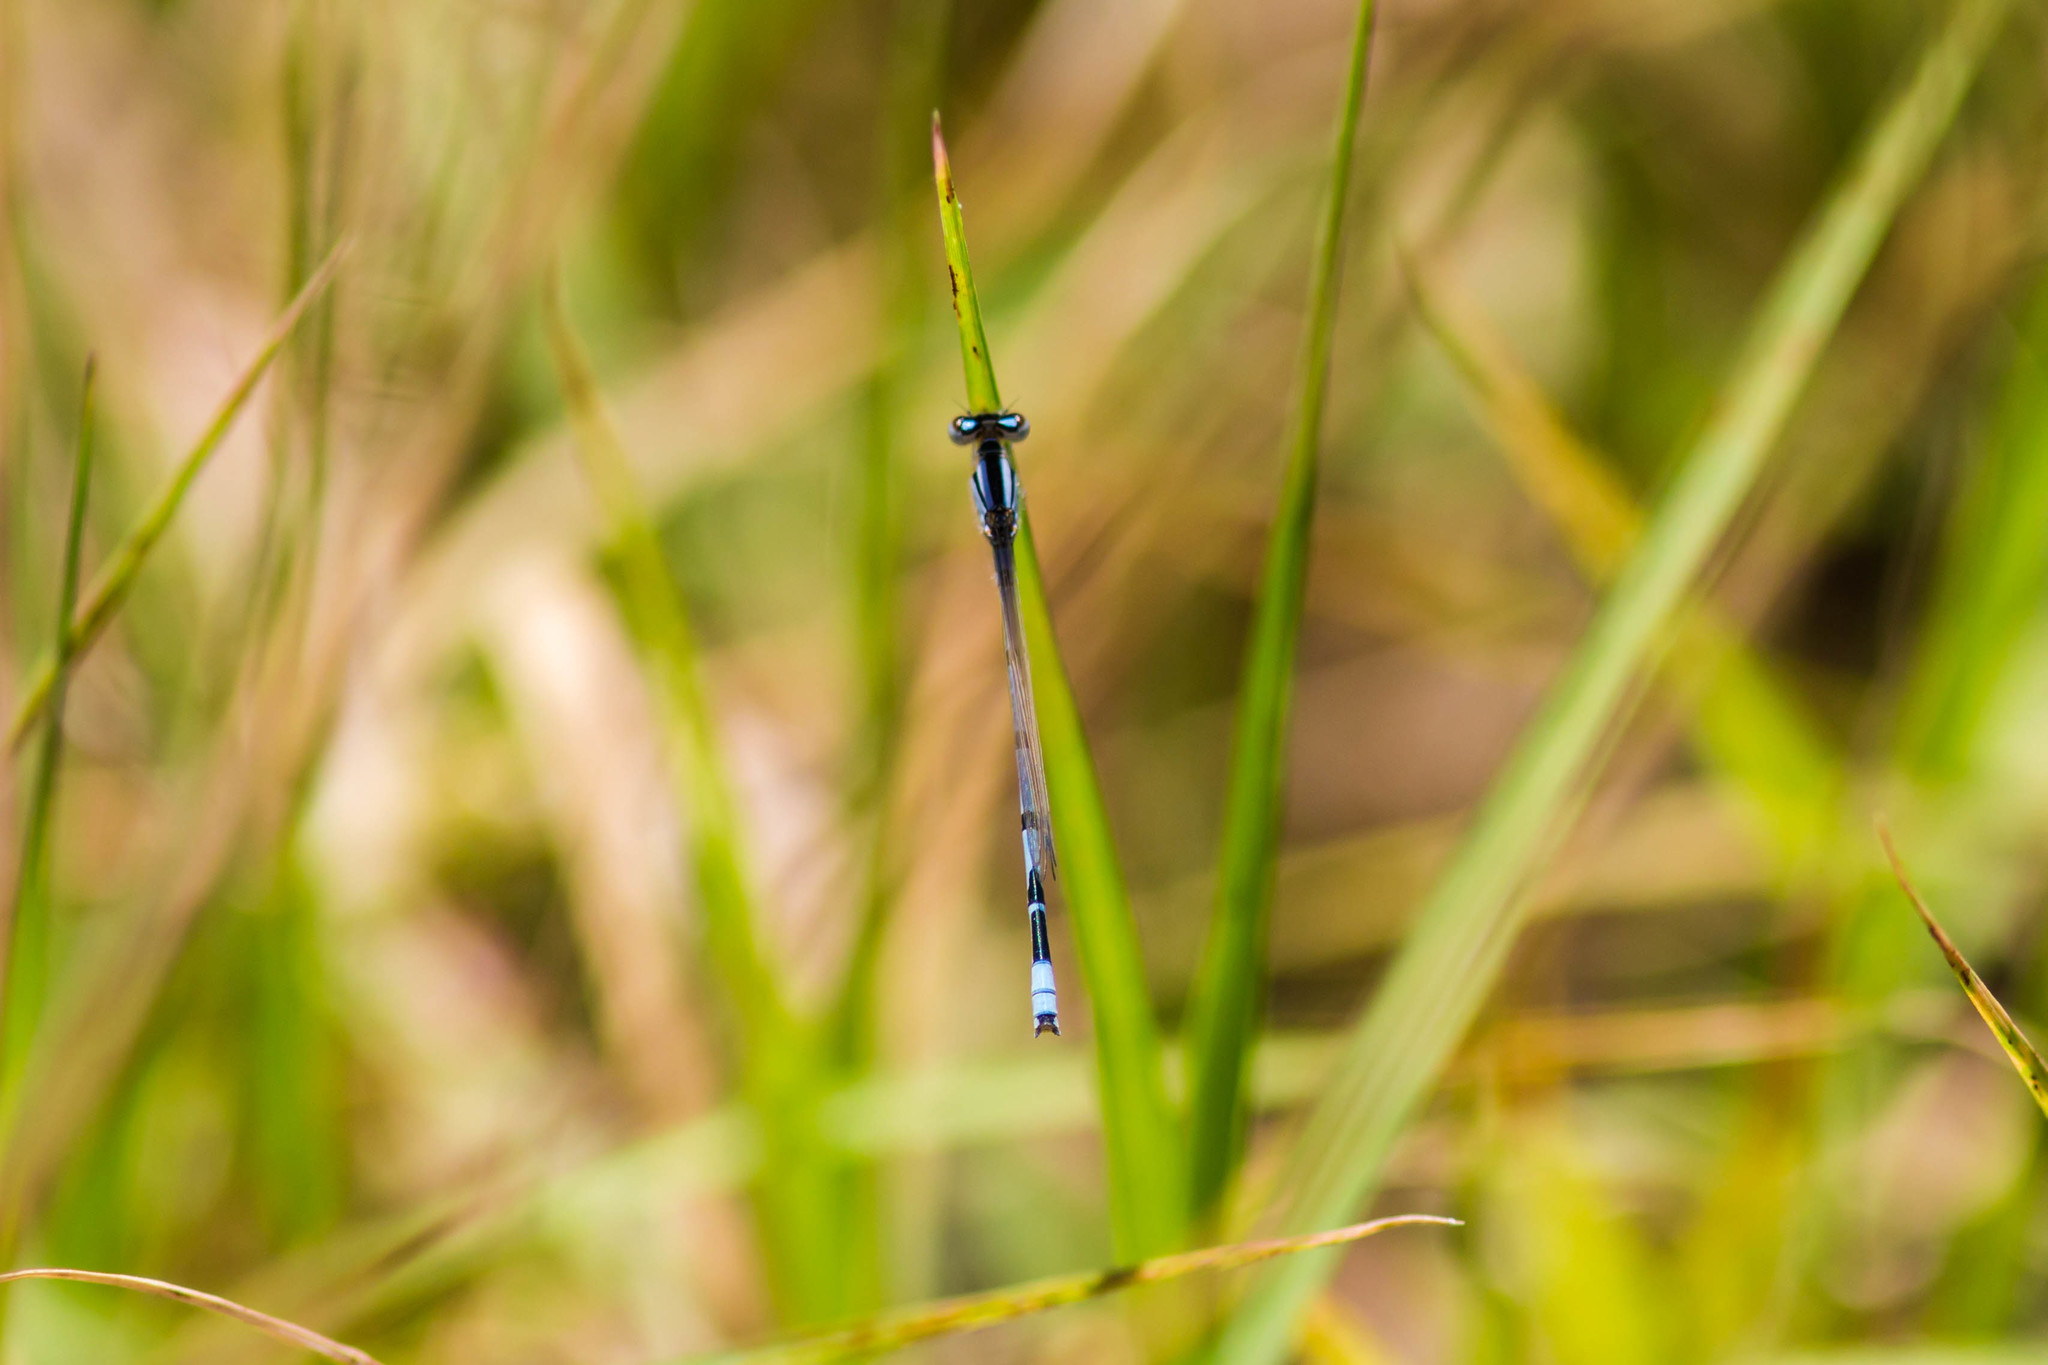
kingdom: Animalia
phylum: Arthropoda
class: Insecta
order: Odonata
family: Coenagrionidae
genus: Enallagma
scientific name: Enallagma civile
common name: Damselfly
